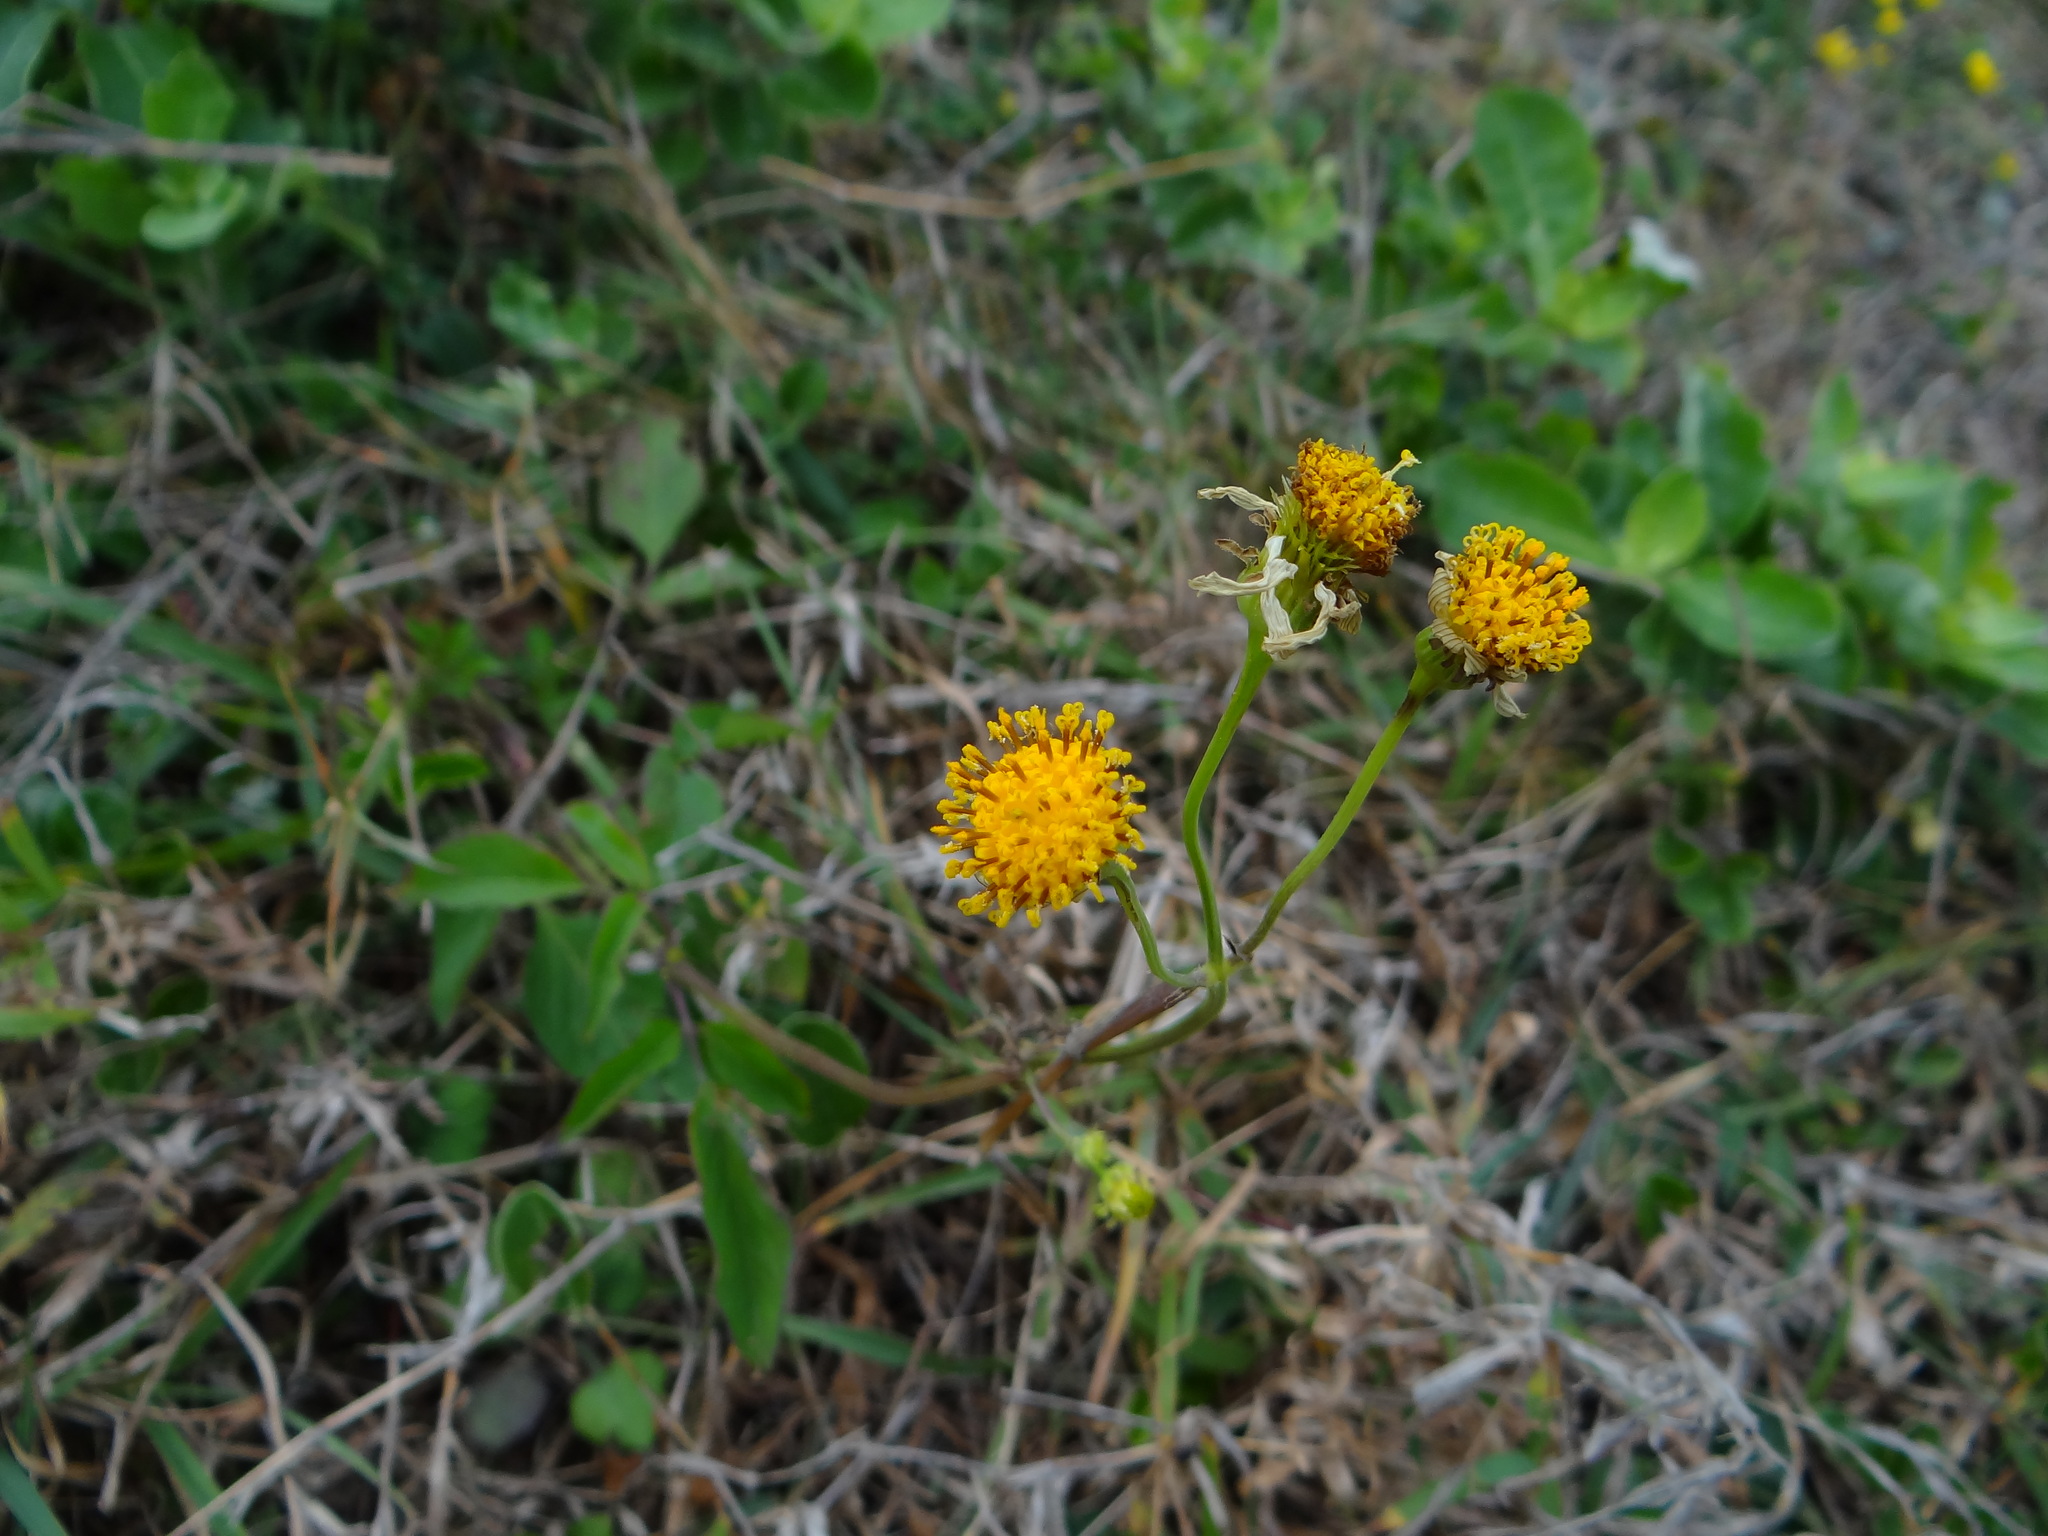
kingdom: Plantae
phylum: Tracheophyta
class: Magnoliopsida
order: Asterales
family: Asteraceae
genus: Bidens
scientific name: Bidens pilosa
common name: Black-jack
